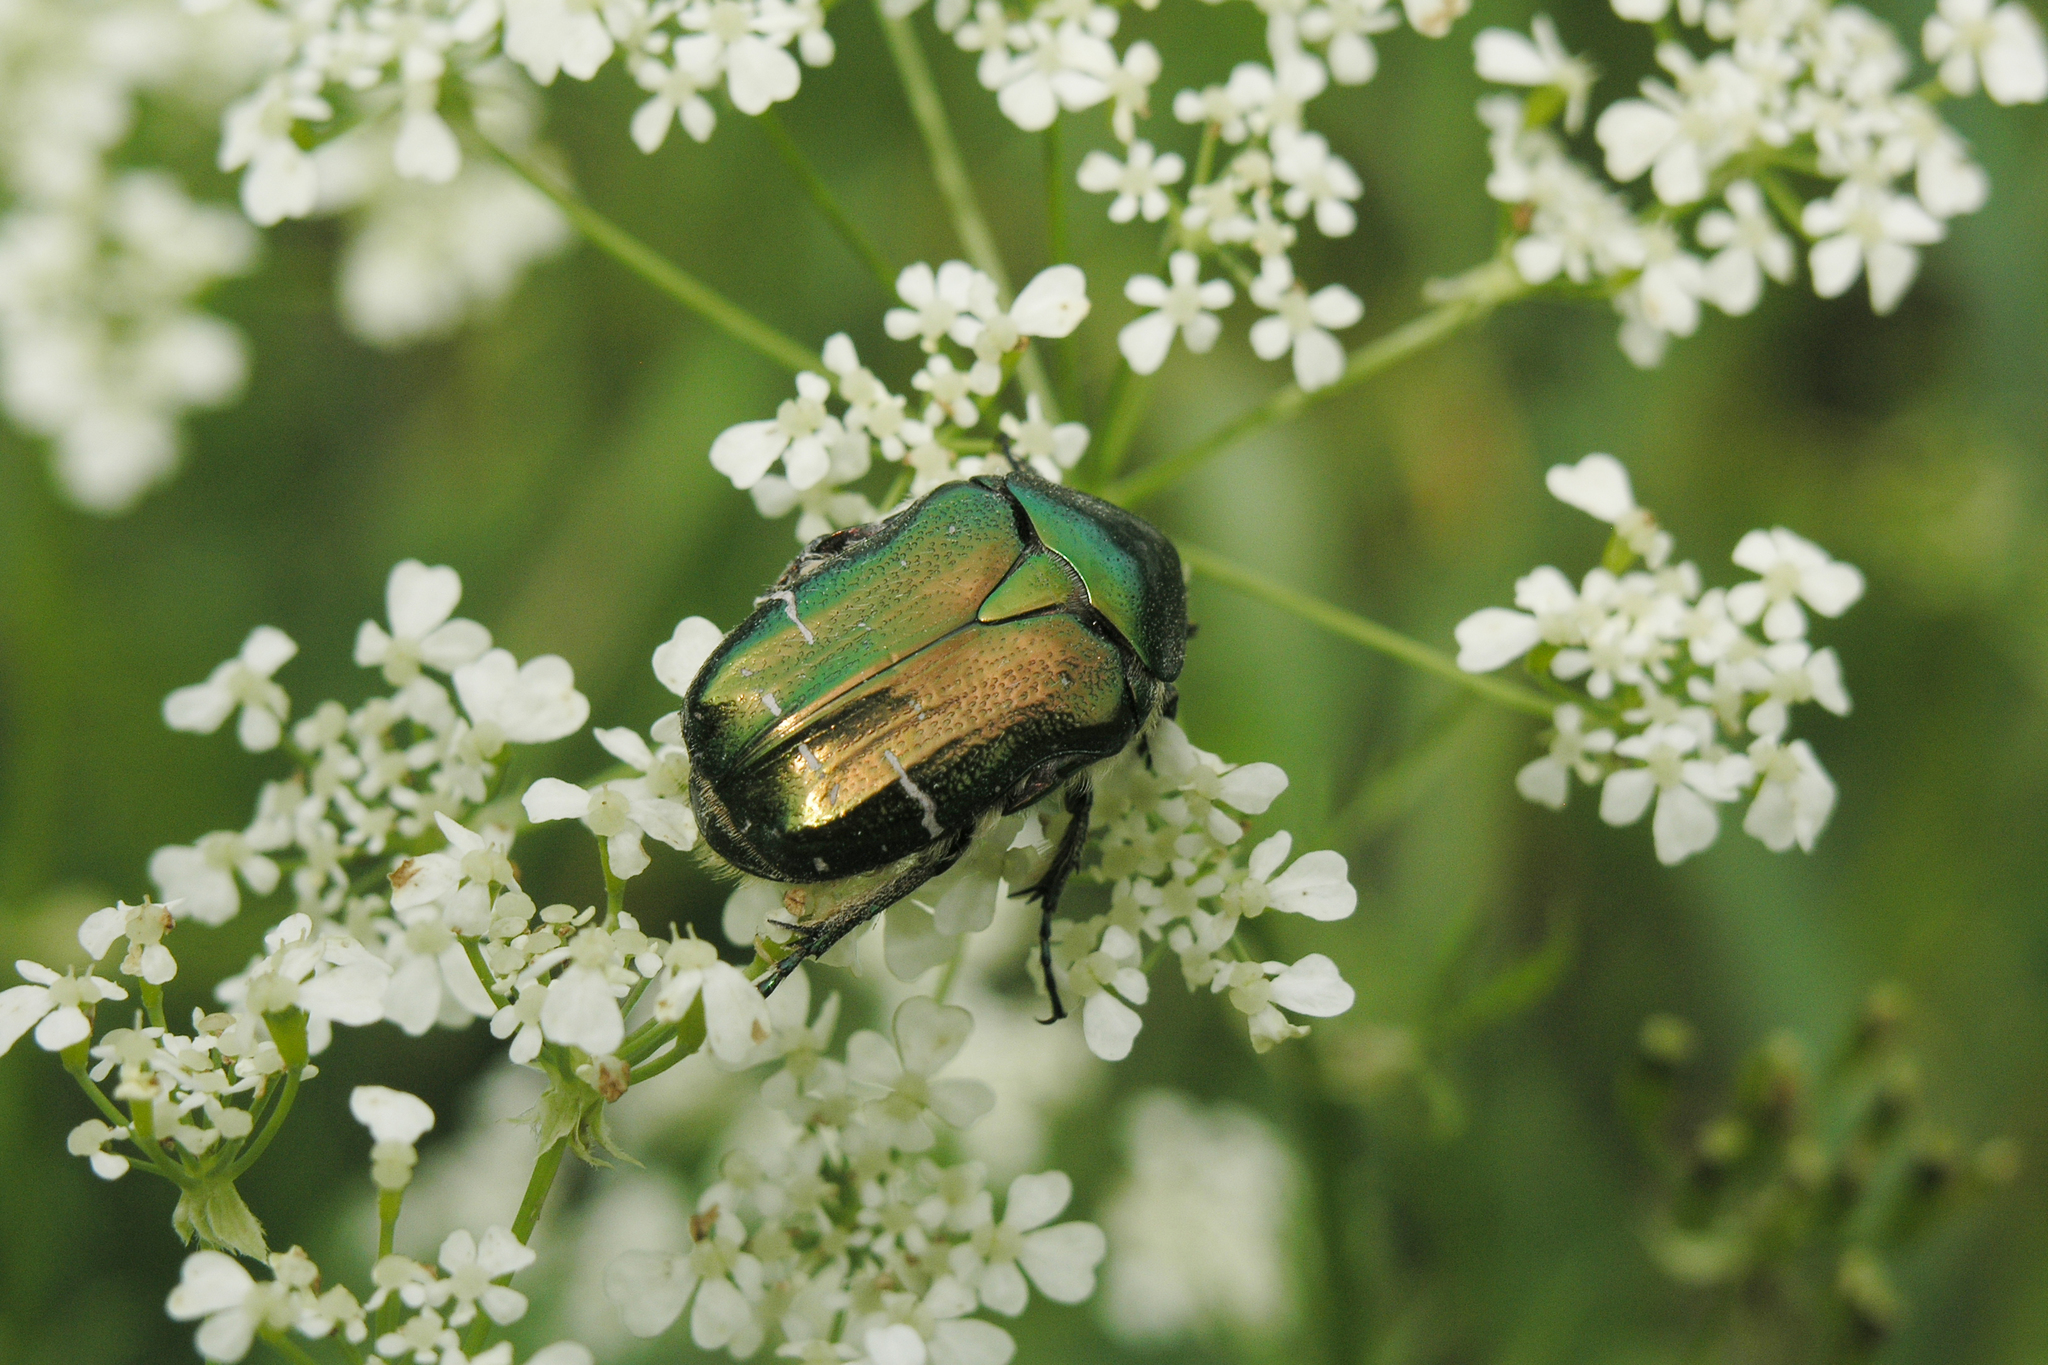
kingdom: Animalia
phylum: Arthropoda
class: Insecta
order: Coleoptera
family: Scarabaeidae
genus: Cetonia
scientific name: Cetonia aurata
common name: Rose chafer
